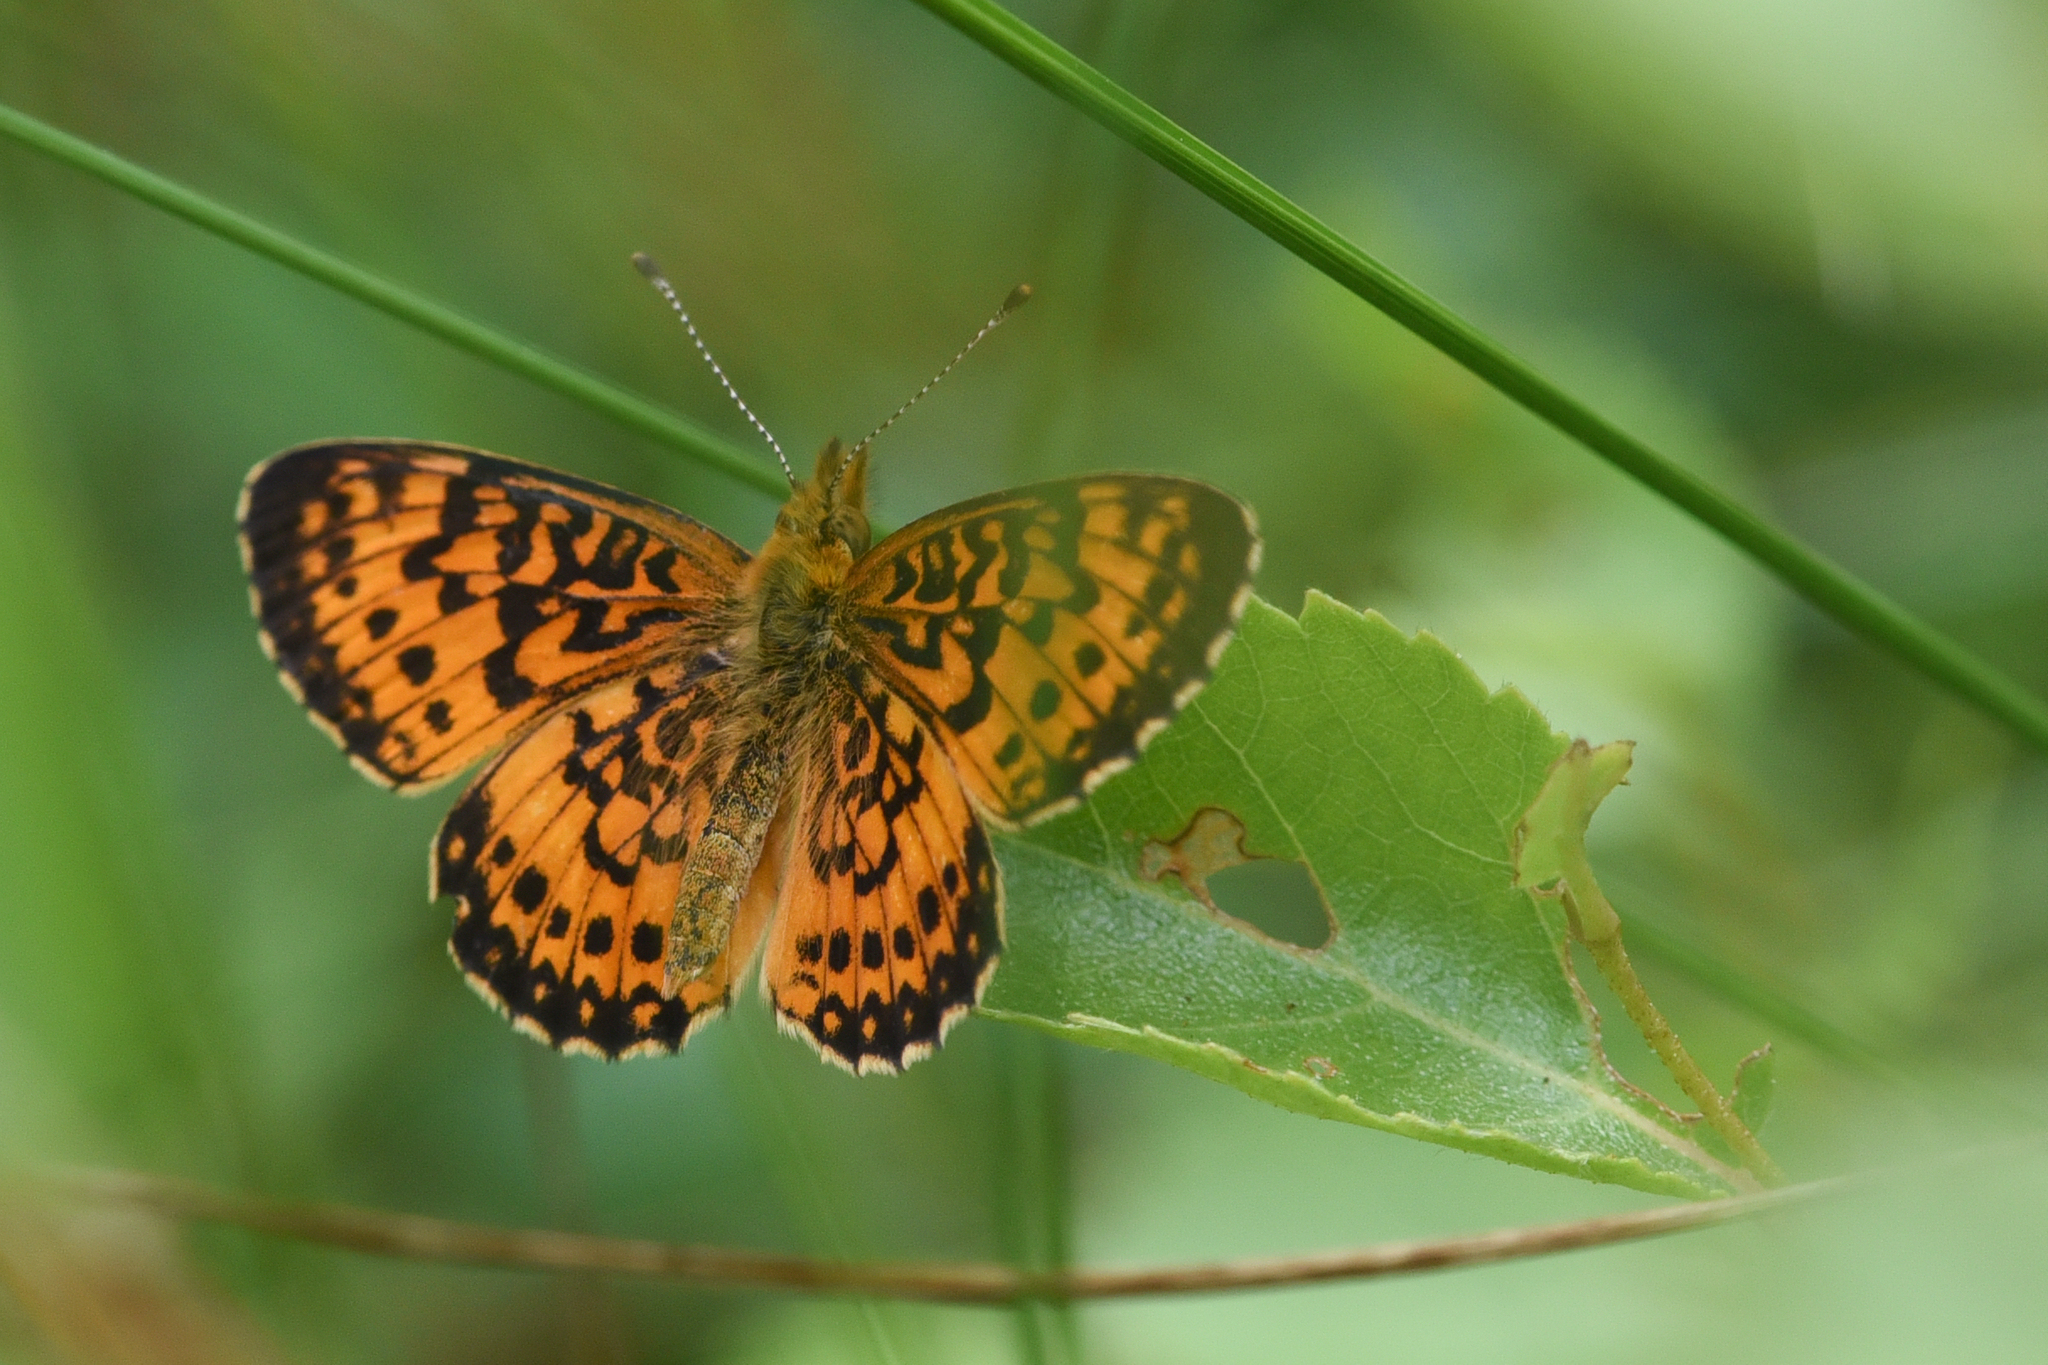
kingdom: Animalia
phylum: Arthropoda
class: Insecta
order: Lepidoptera
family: Nymphalidae
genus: Boloria
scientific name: Boloria
